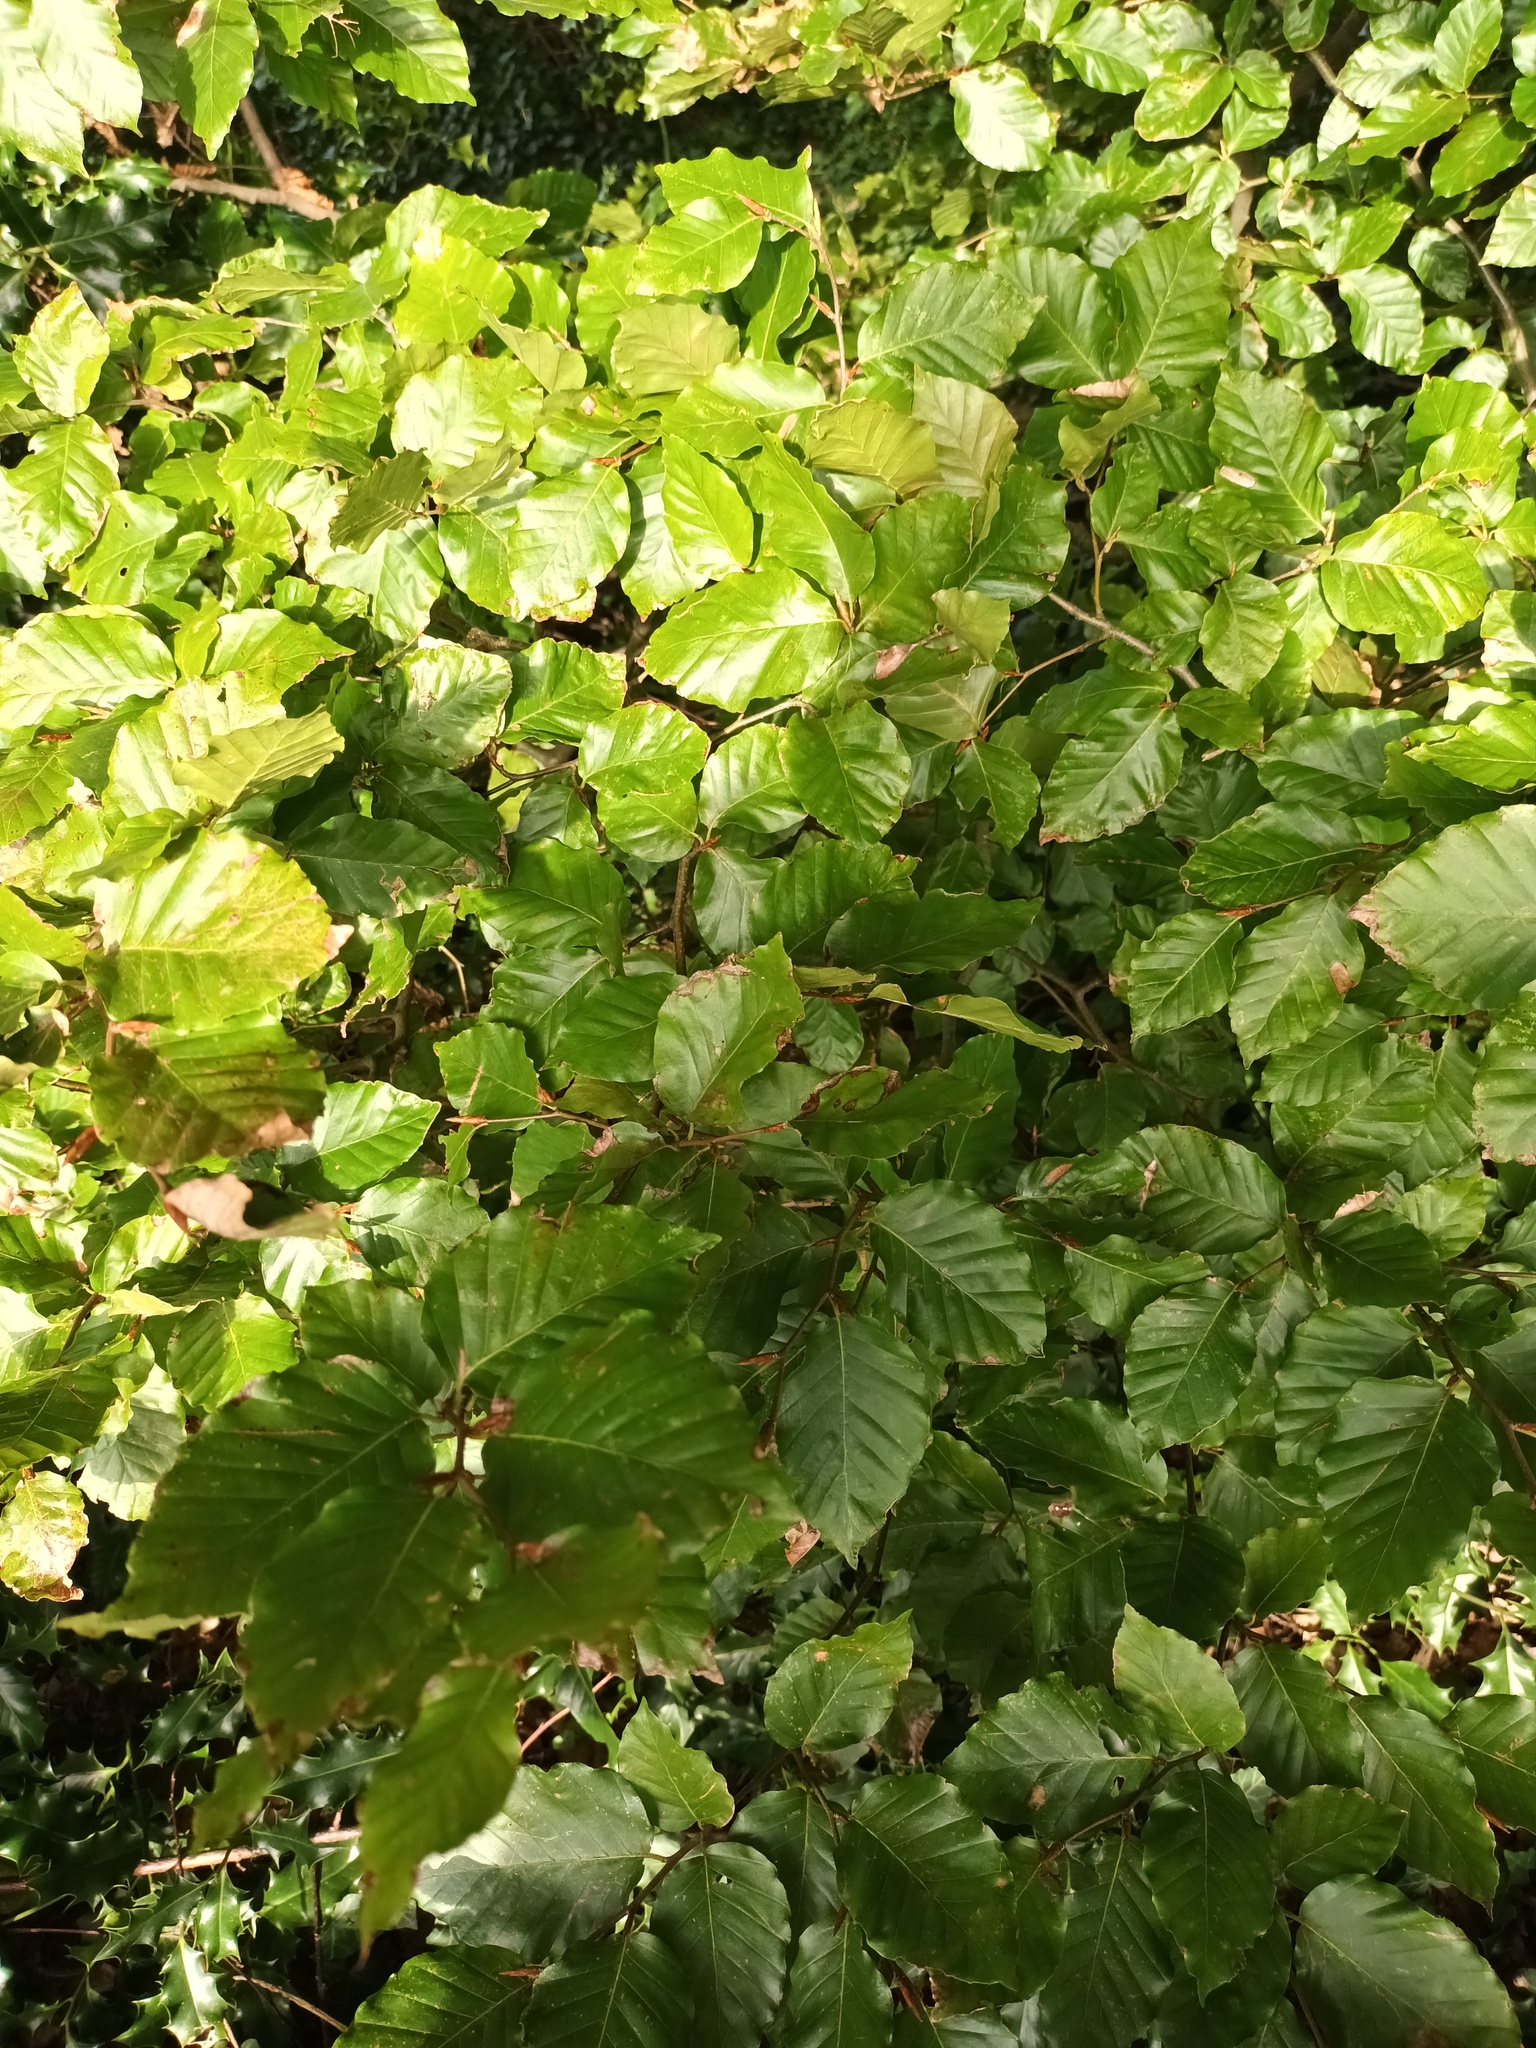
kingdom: Plantae
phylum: Tracheophyta
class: Magnoliopsida
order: Fagales
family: Fagaceae
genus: Fagus
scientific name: Fagus sylvatica
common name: Beech
